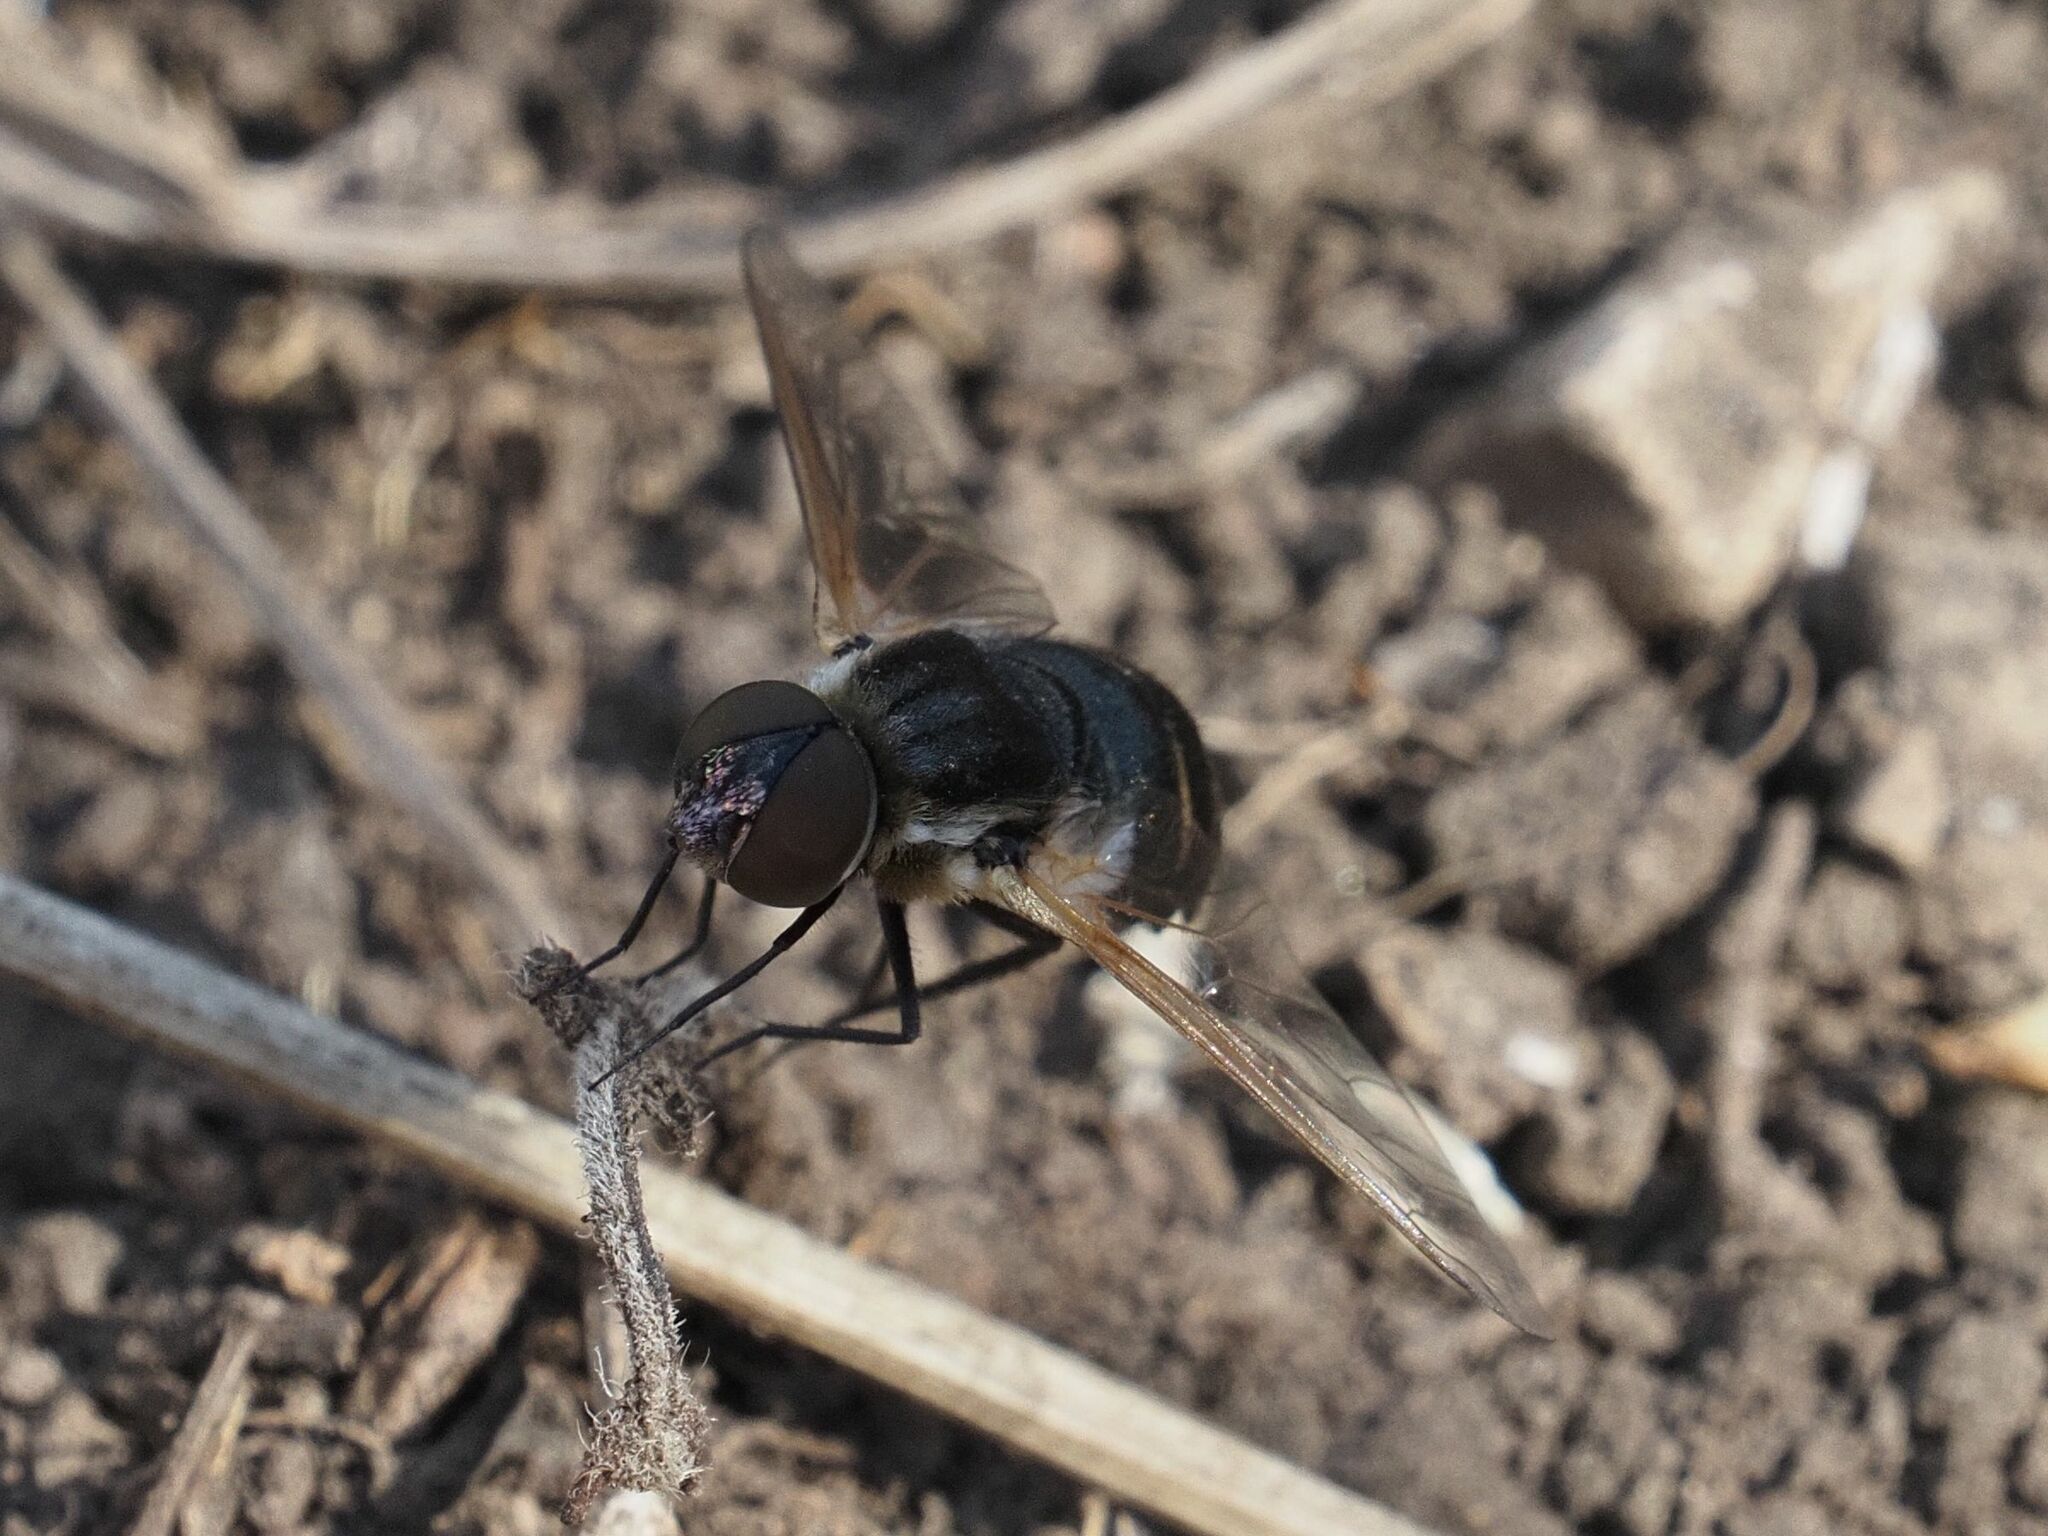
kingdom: Animalia
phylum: Arthropoda
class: Insecta
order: Diptera
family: Bombyliidae
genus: Micomitra
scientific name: Micomitra stupida
